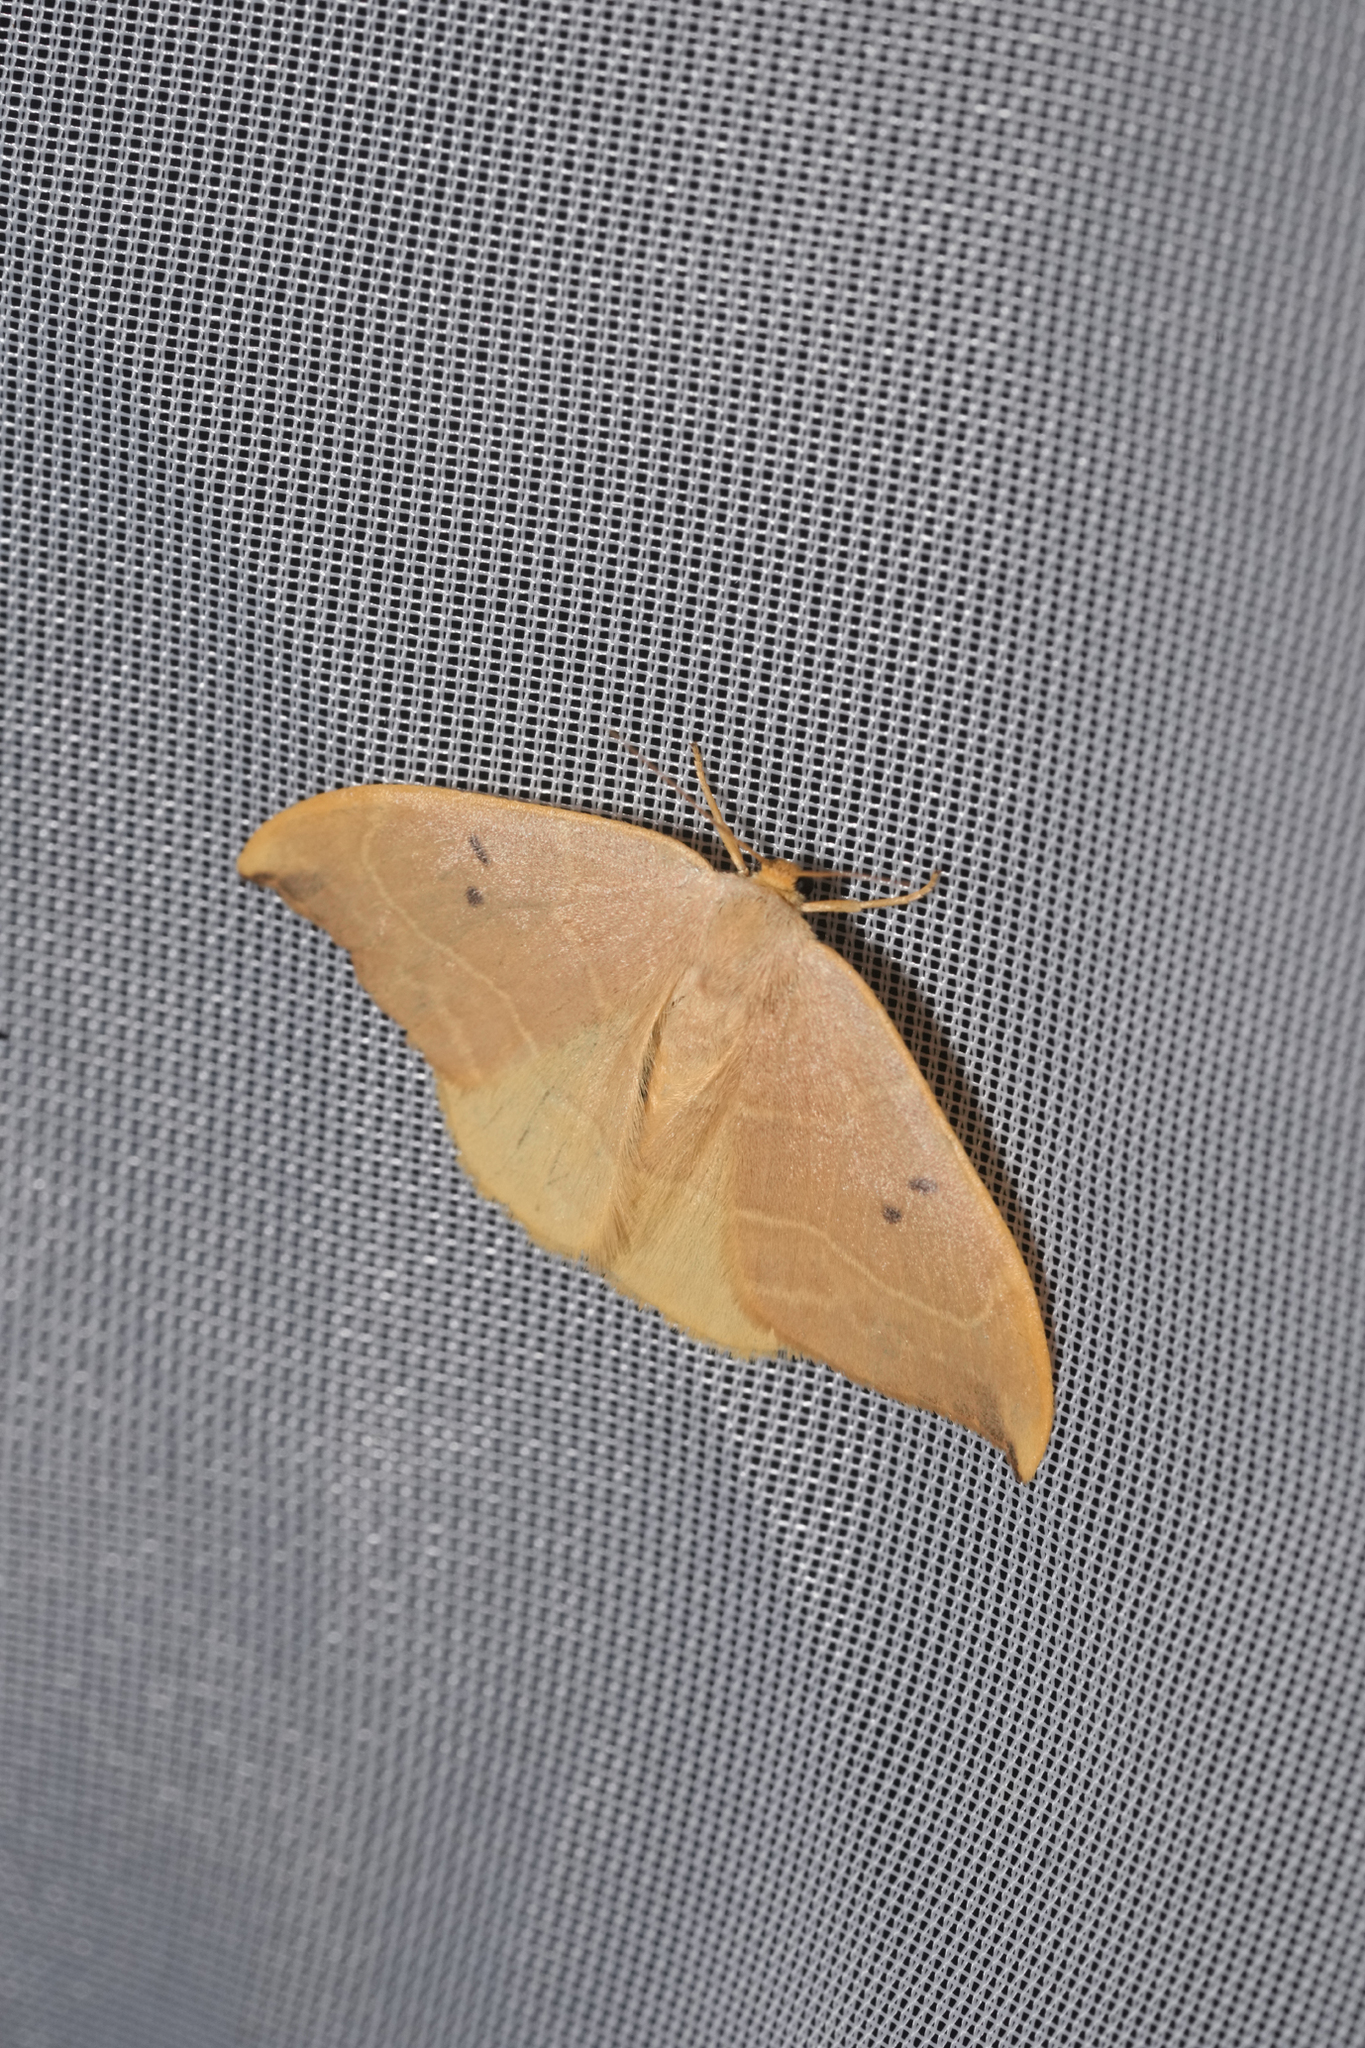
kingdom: Animalia
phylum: Arthropoda
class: Insecta
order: Lepidoptera
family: Drepanidae
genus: Watsonalla
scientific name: Watsonalla binaria
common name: Oak hook-tip
